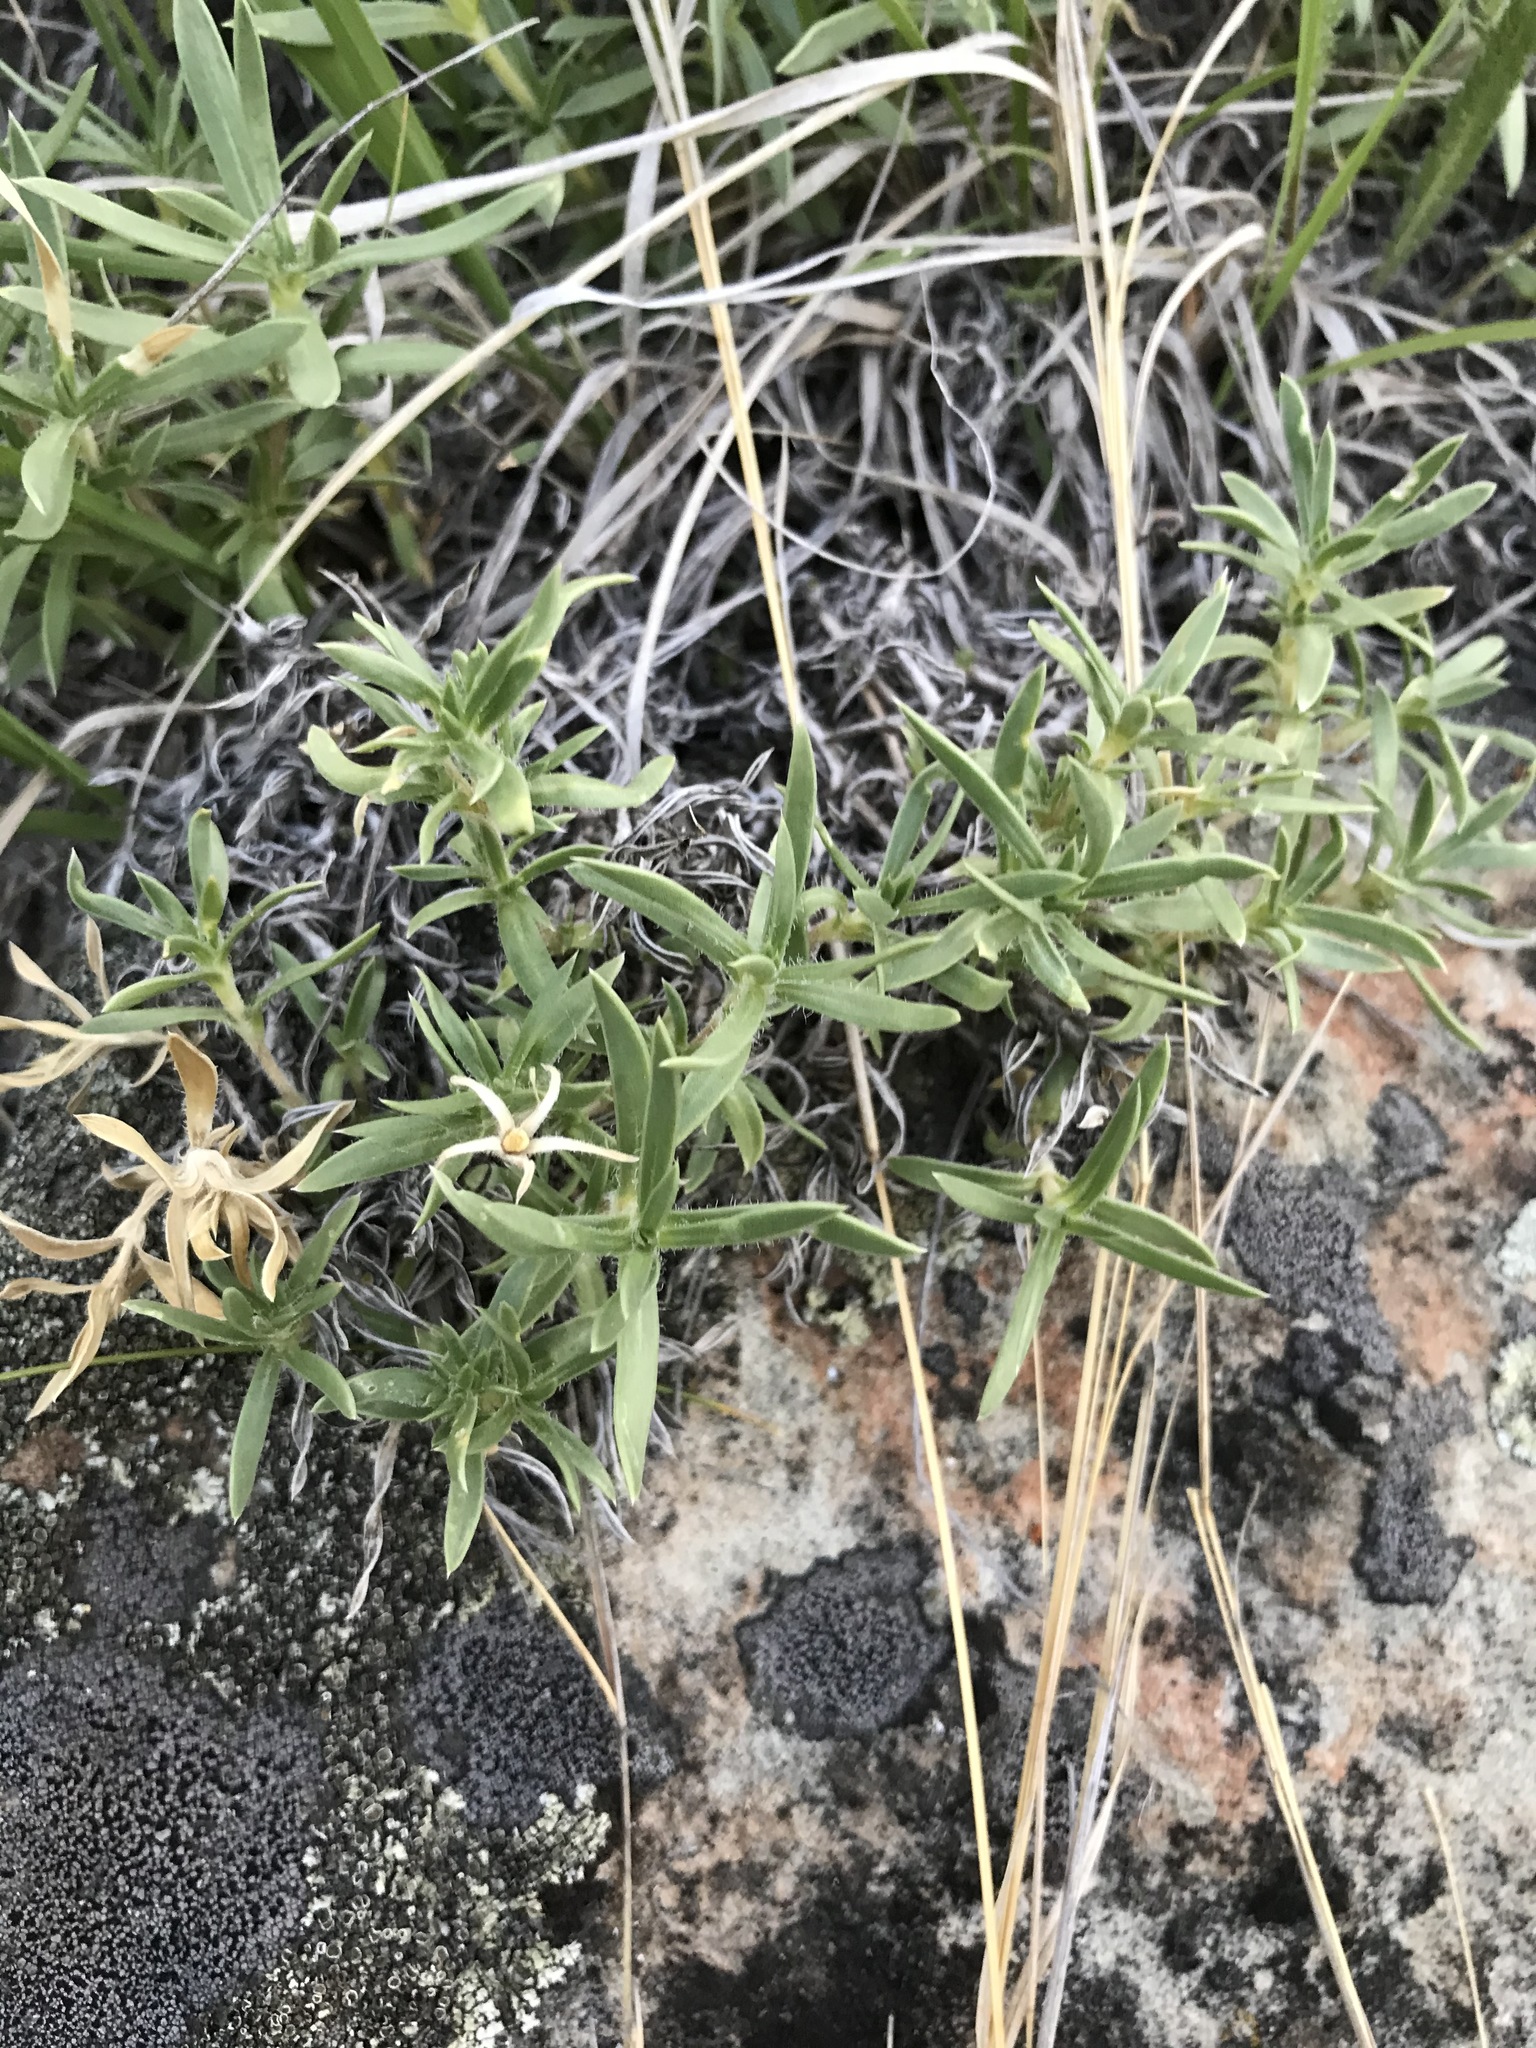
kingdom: Plantae
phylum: Tracheophyta
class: Magnoliopsida
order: Ericales
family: Polemoniaceae
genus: Phlox
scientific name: Phlox alyssifolia
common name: Blue phlox
